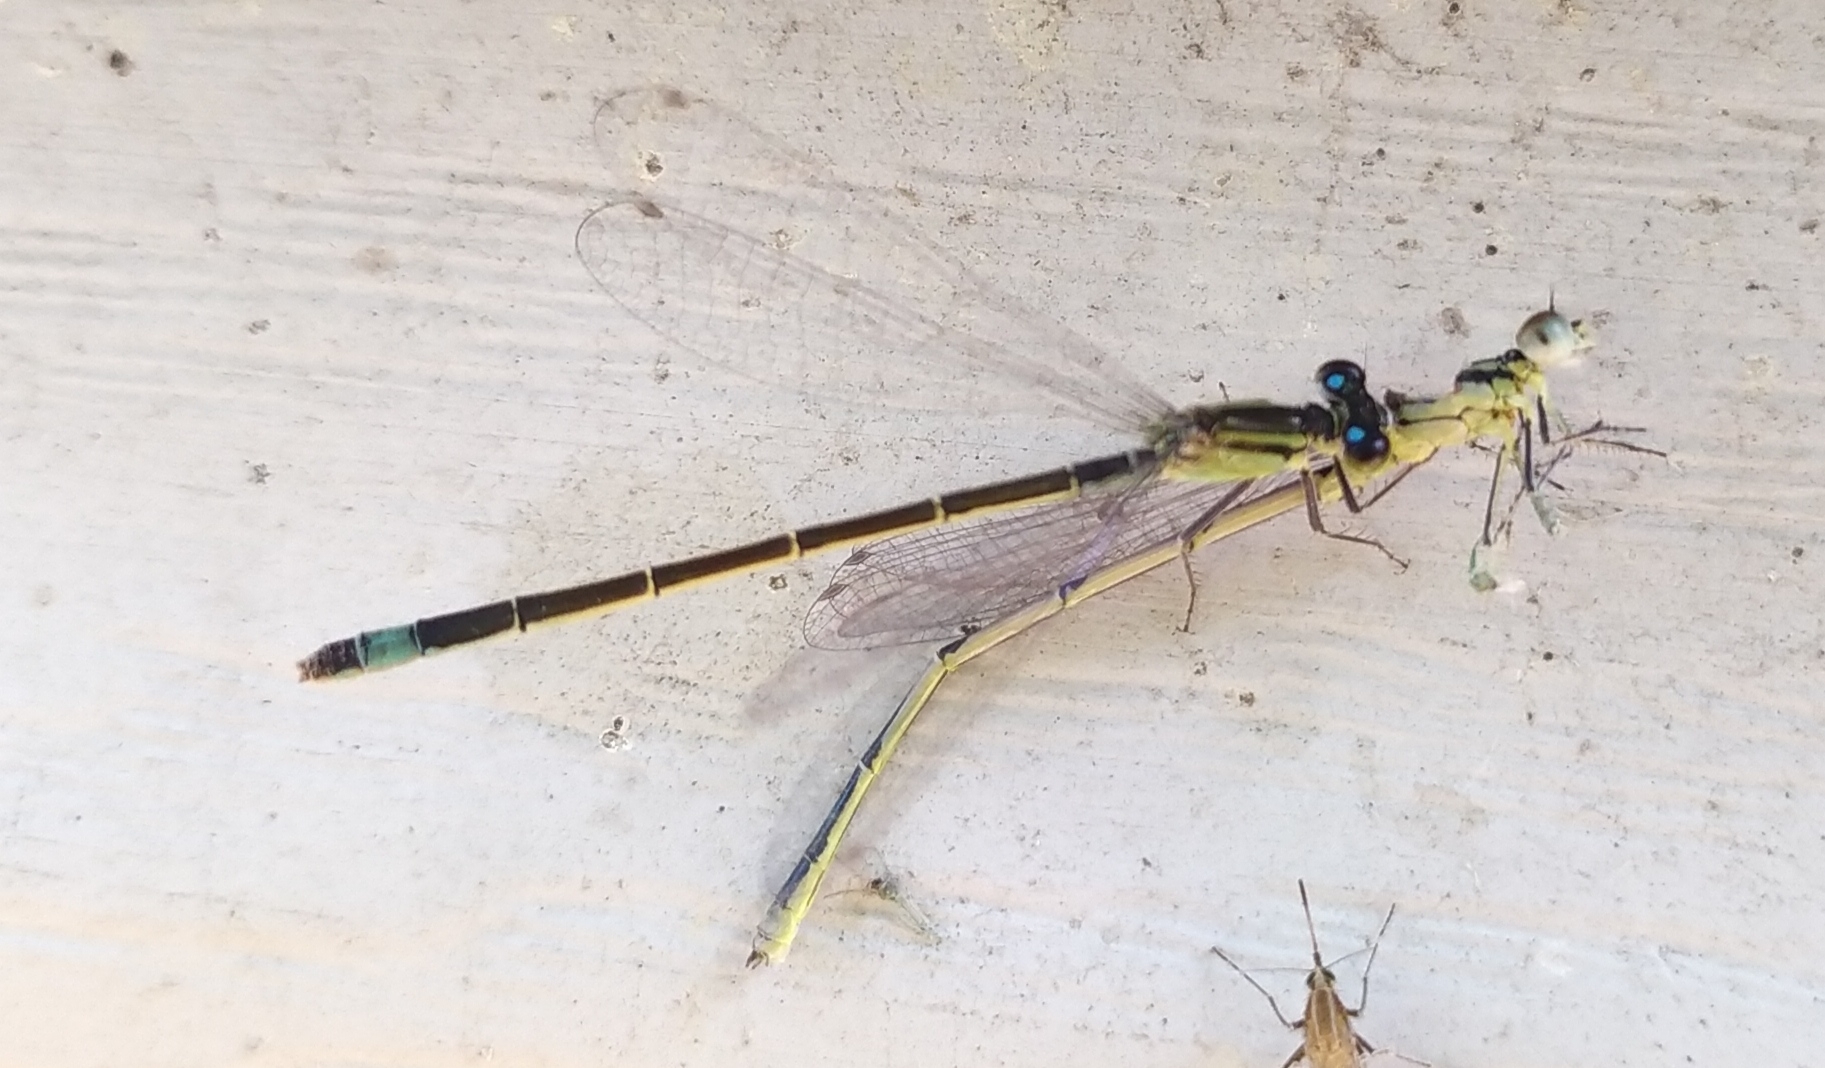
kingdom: Animalia
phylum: Arthropoda
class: Insecta
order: Odonata
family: Coenagrionidae
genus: Ischnura
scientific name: Ischnura elegans
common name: Blue-tailed damselfly
